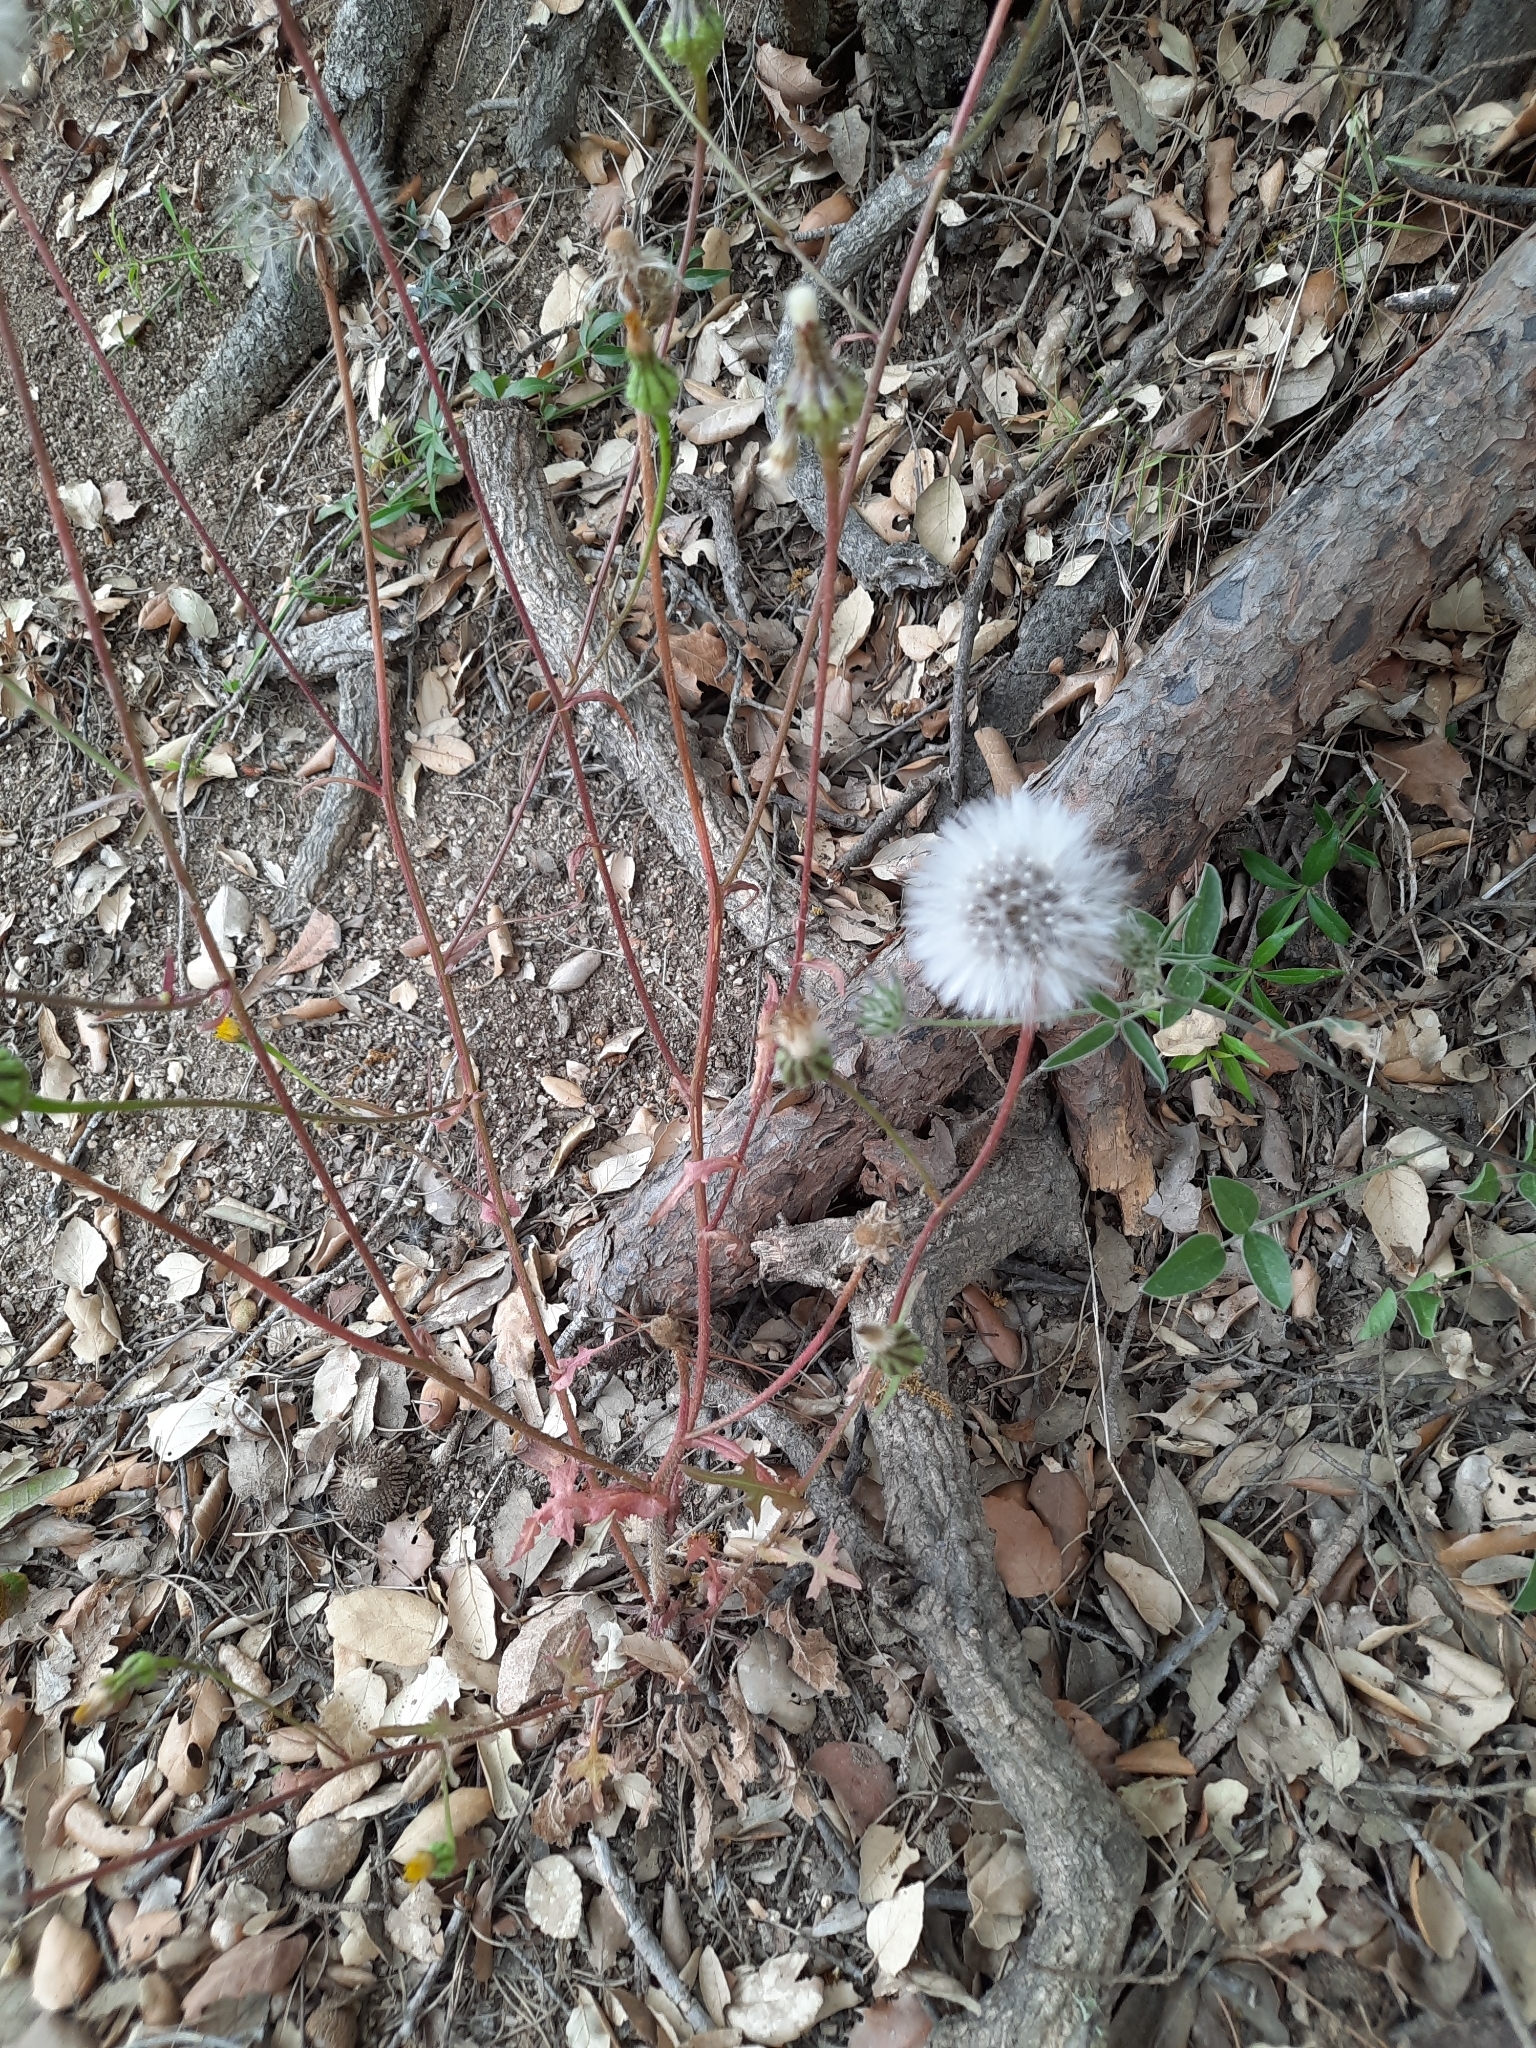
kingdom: Plantae
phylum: Tracheophyta
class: Magnoliopsida
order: Asterales
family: Asteraceae
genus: Urospermum
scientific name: Urospermum picroides
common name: False hawkbit
